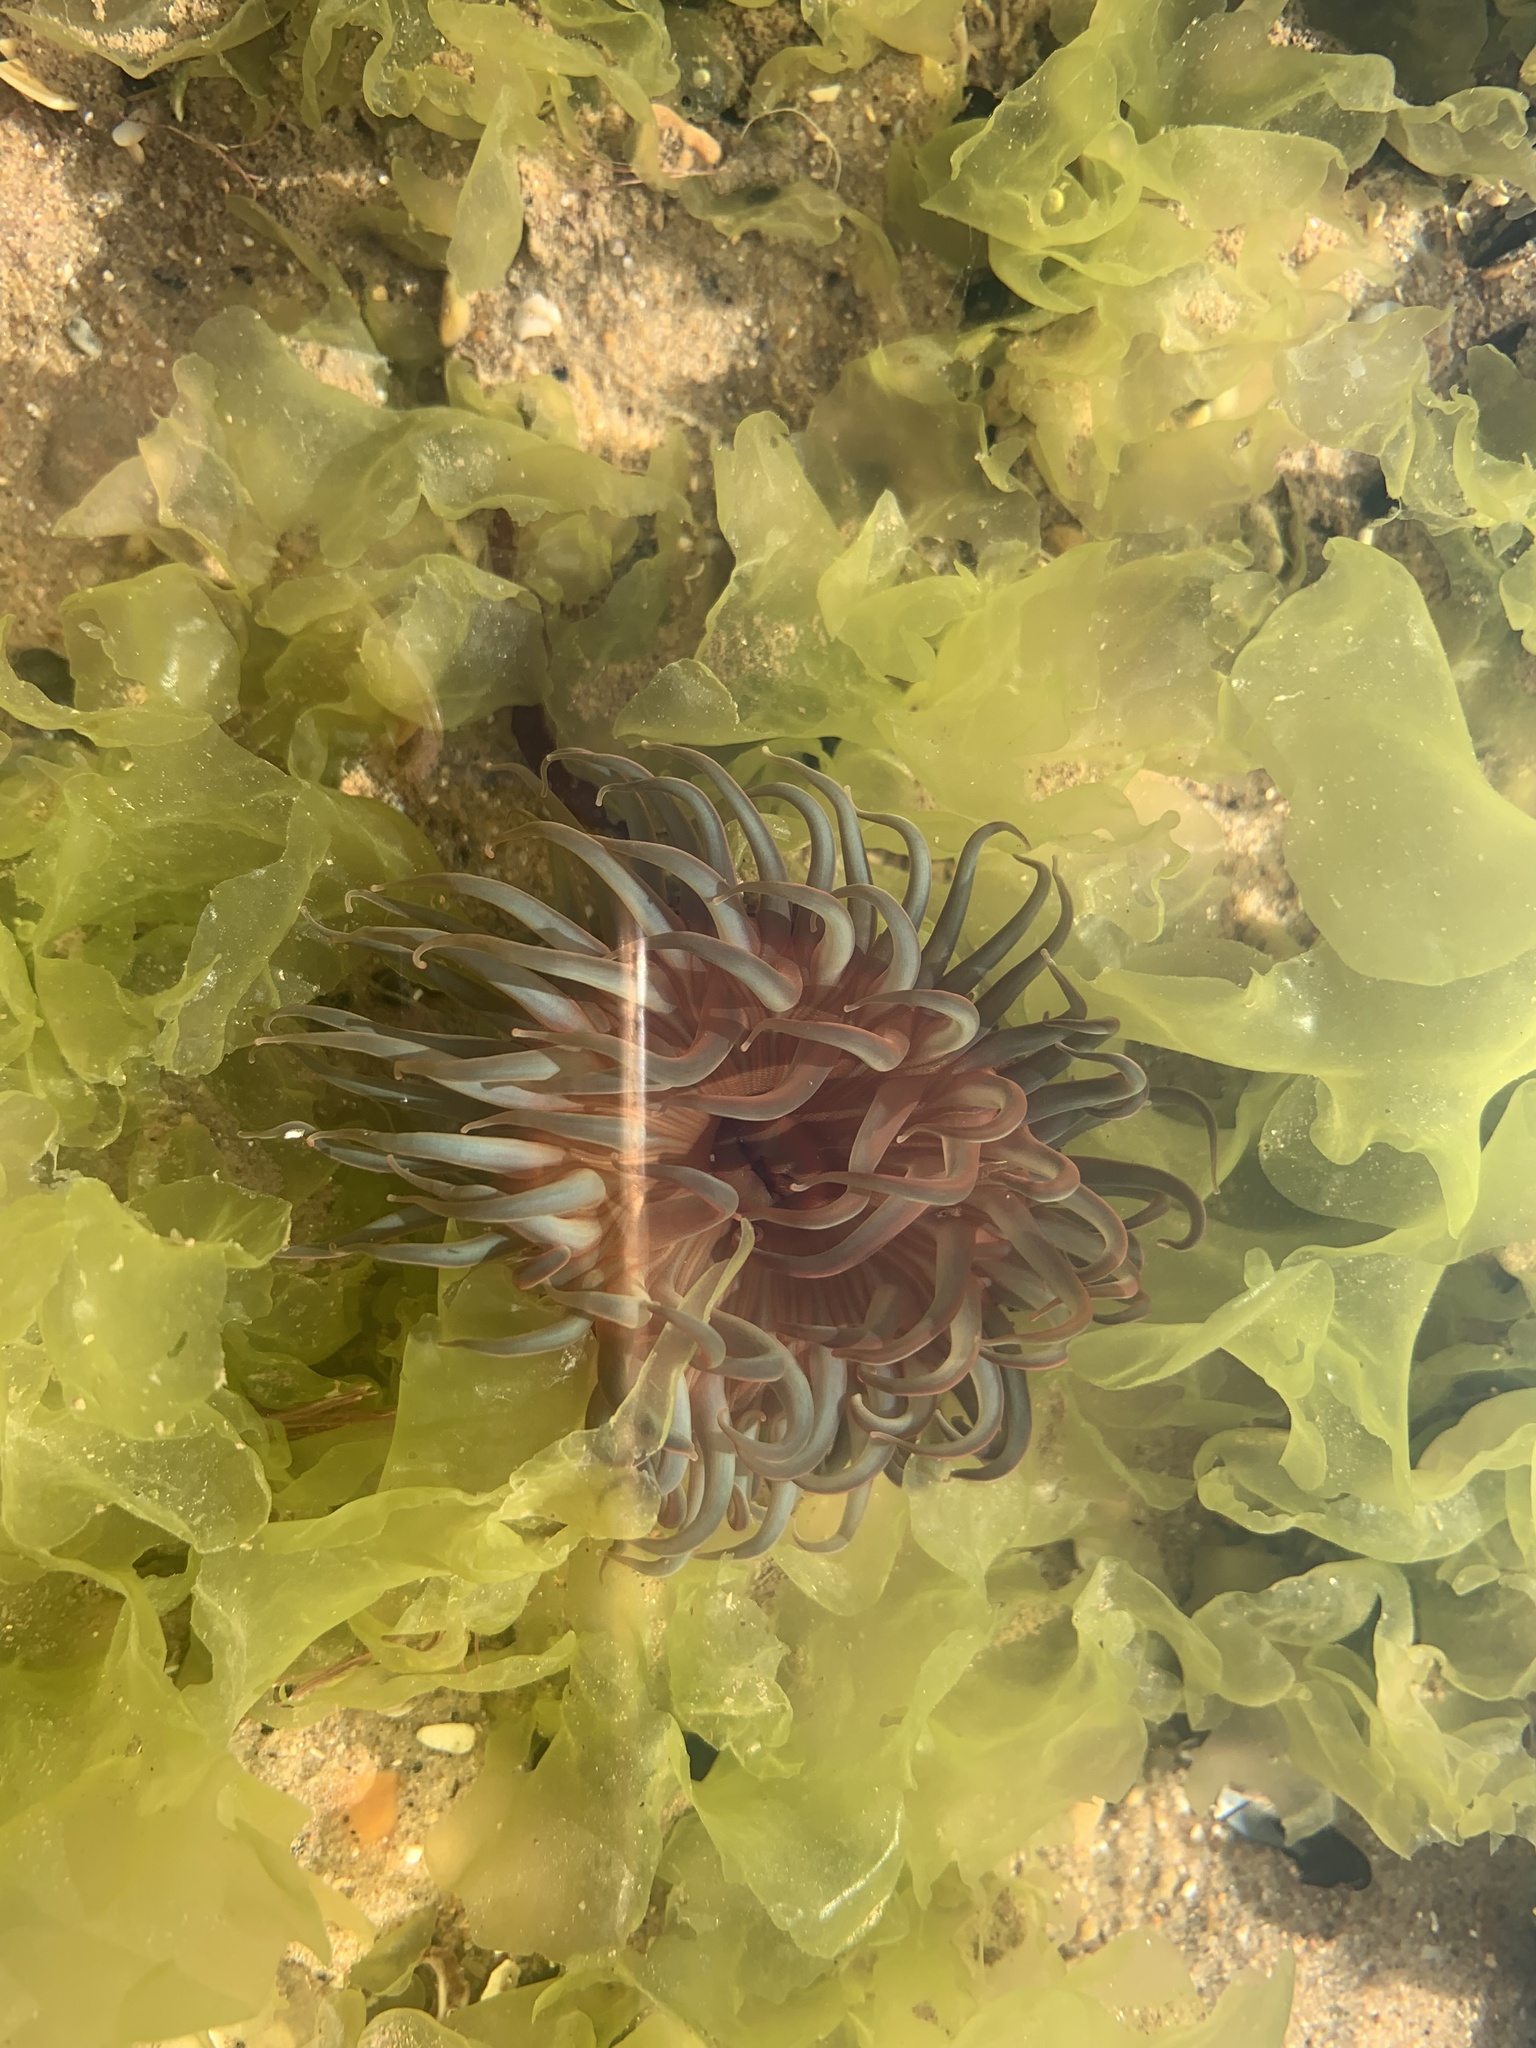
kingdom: Animalia
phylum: Cnidaria
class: Anthozoa
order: Actiniaria
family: Actiniidae
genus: Bunodosoma
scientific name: Bunodosoma cangicum
